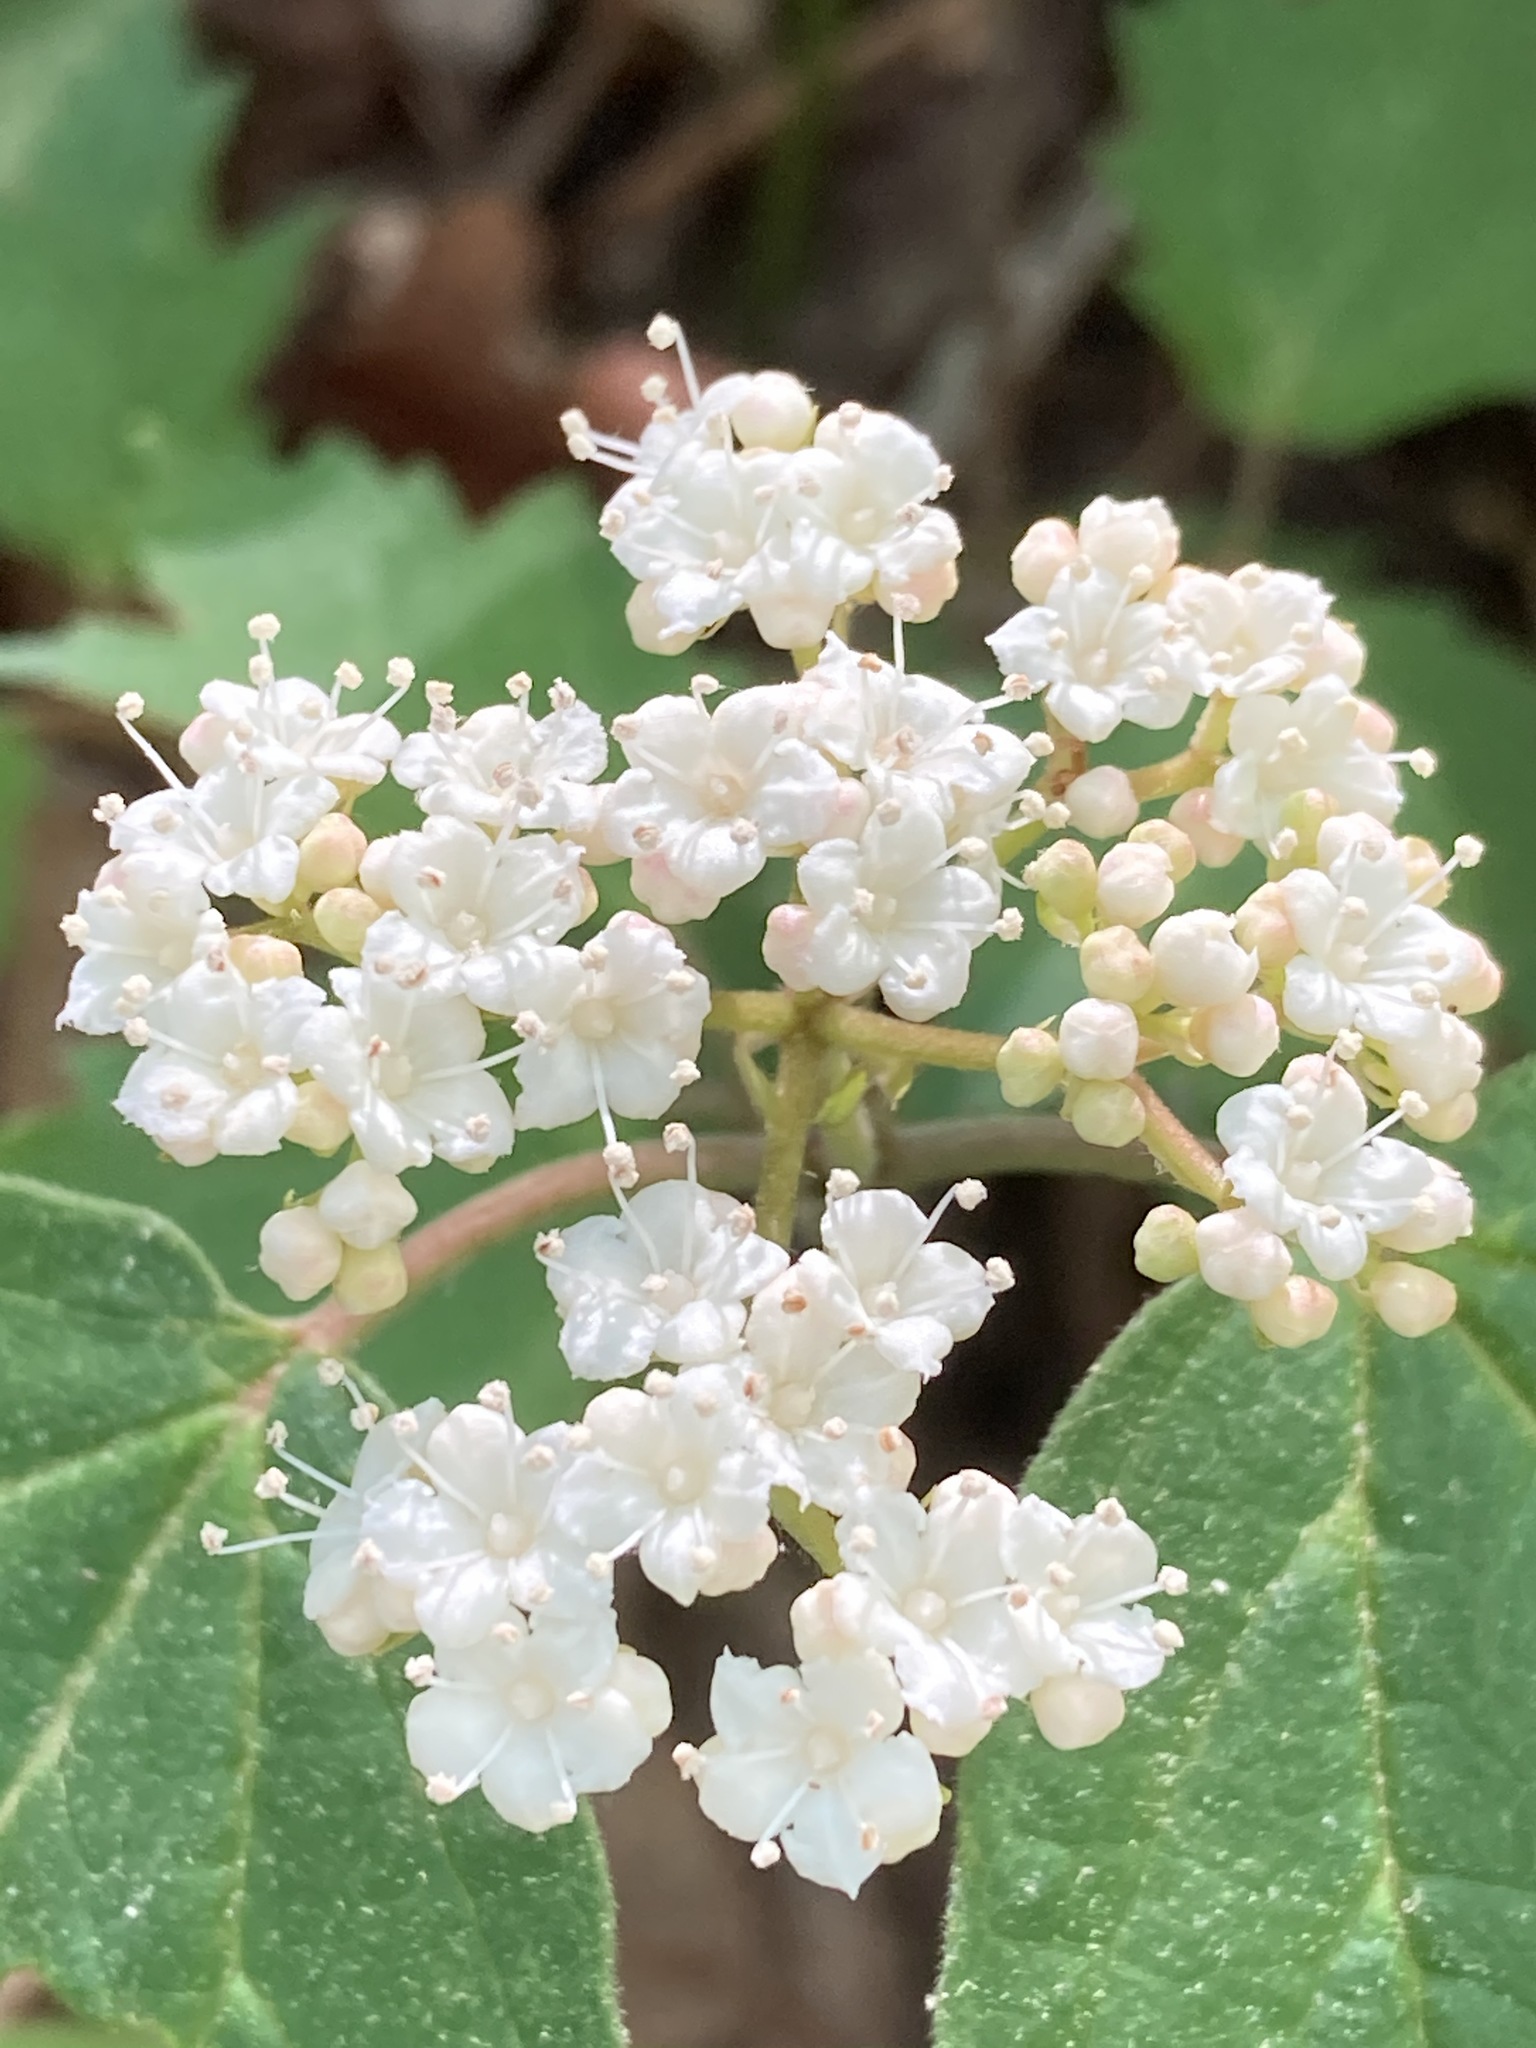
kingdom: Plantae
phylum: Tracheophyta
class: Magnoliopsida
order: Dipsacales
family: Viburnaceae
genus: Viburnum
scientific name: Viburnum acerifolium
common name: Dockmackie
